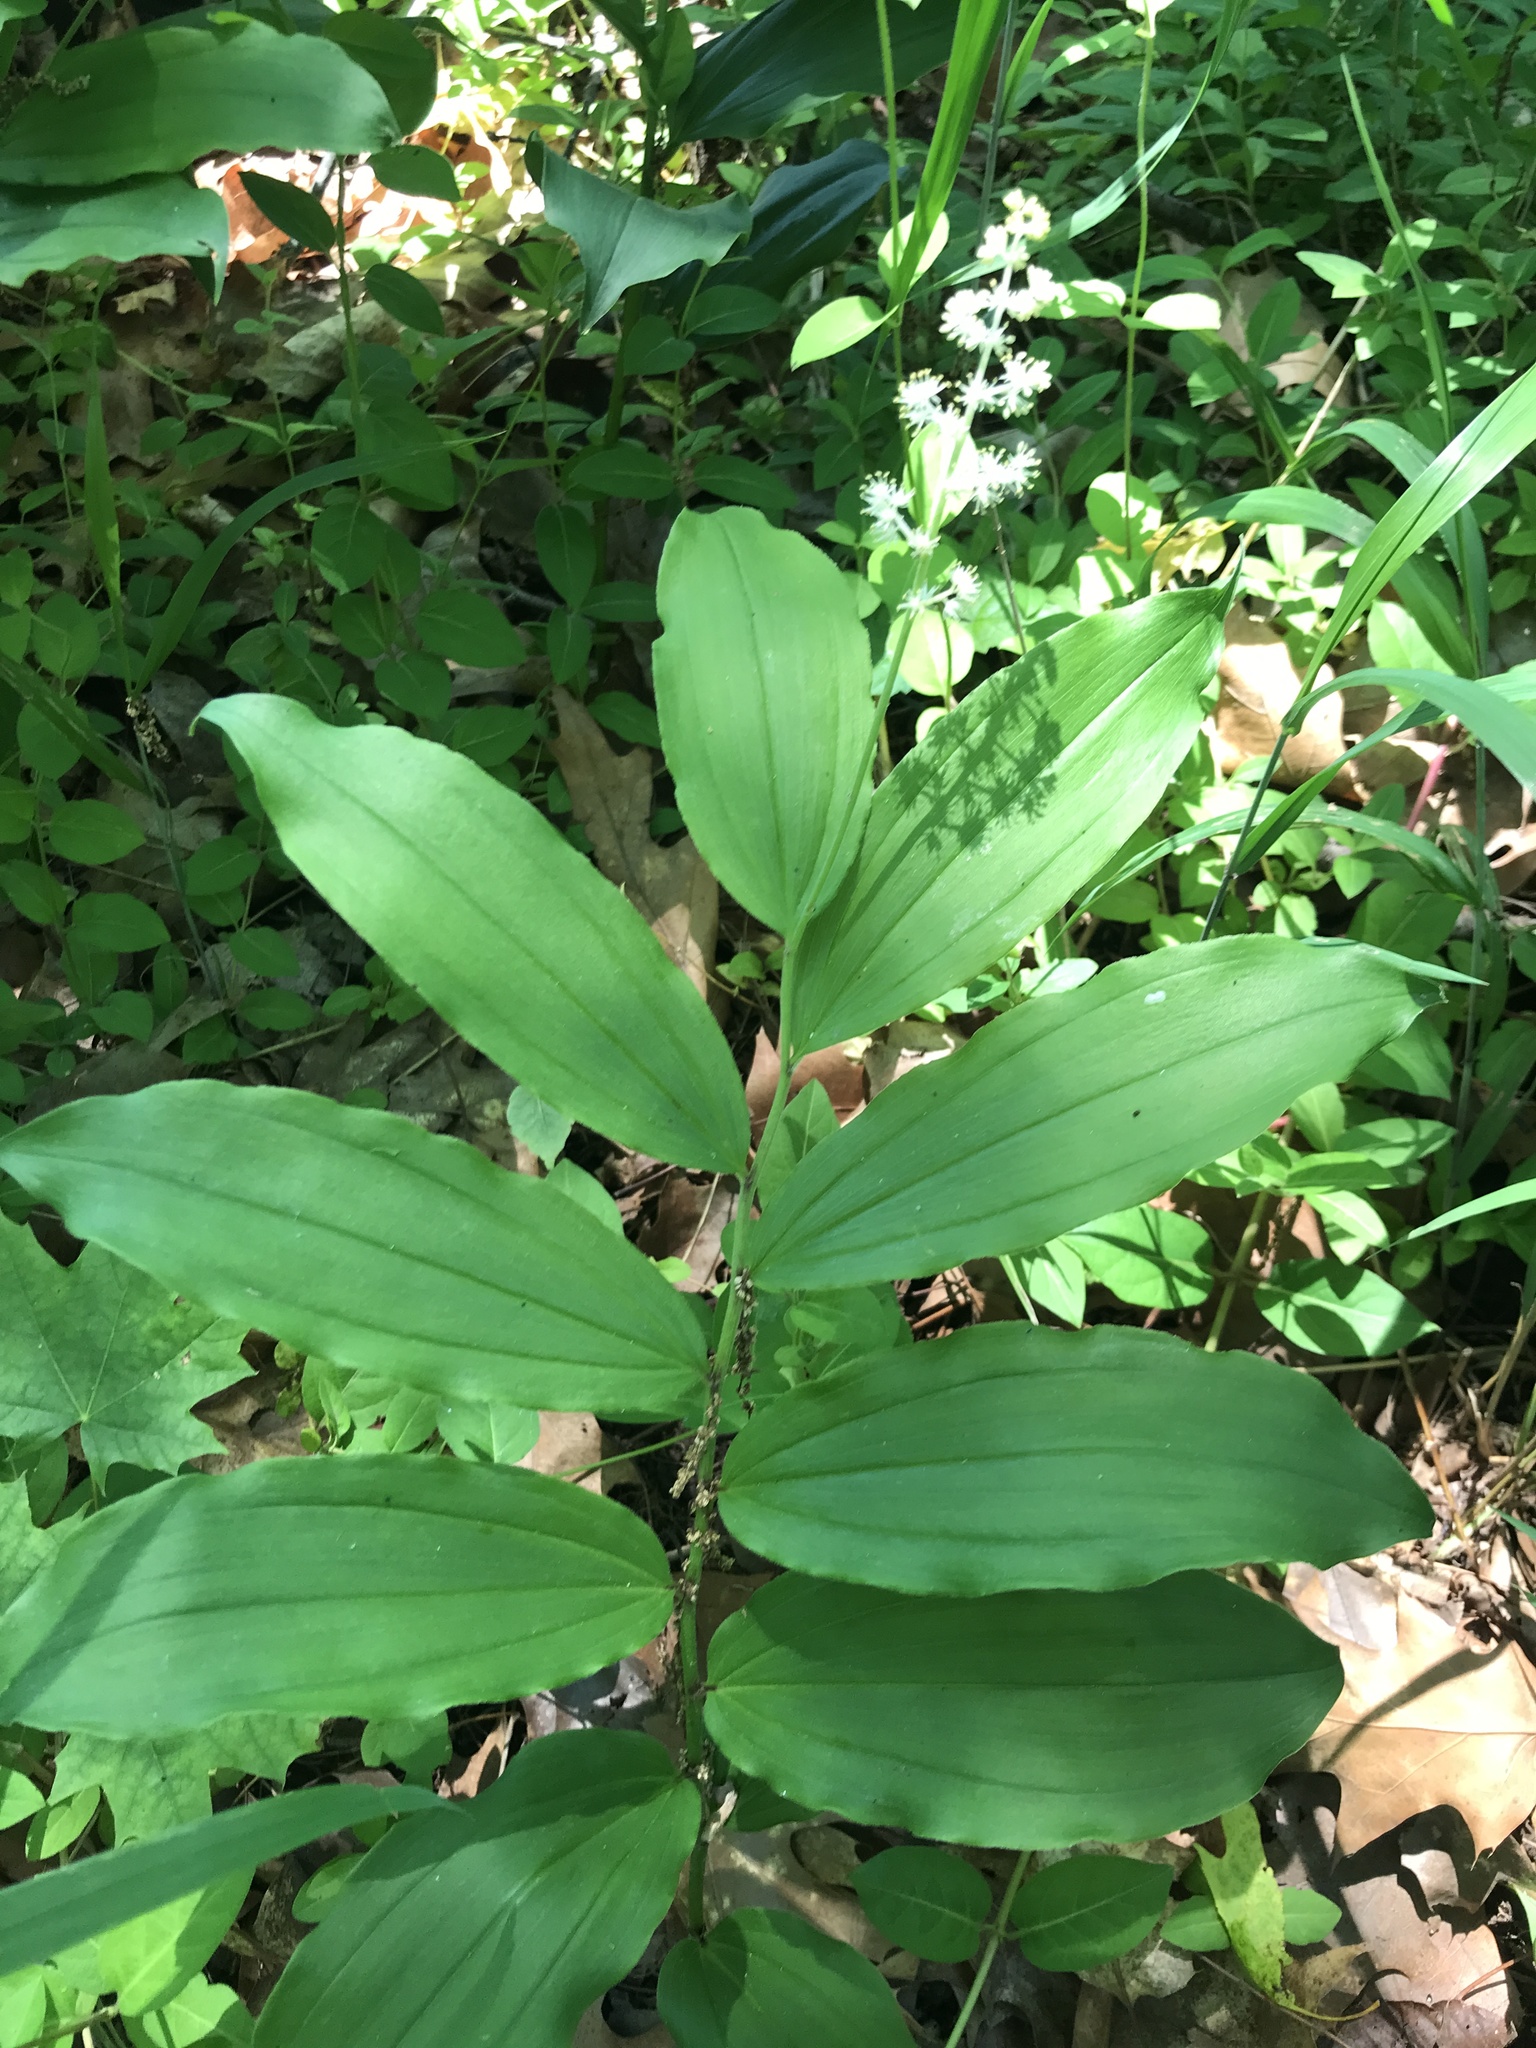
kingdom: Plantae
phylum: Tracheophyta
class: Liliopsida
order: Asparagales
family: Asparagaceae
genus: Maianthemum
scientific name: Maianthemum racemosum
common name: False spikenard
